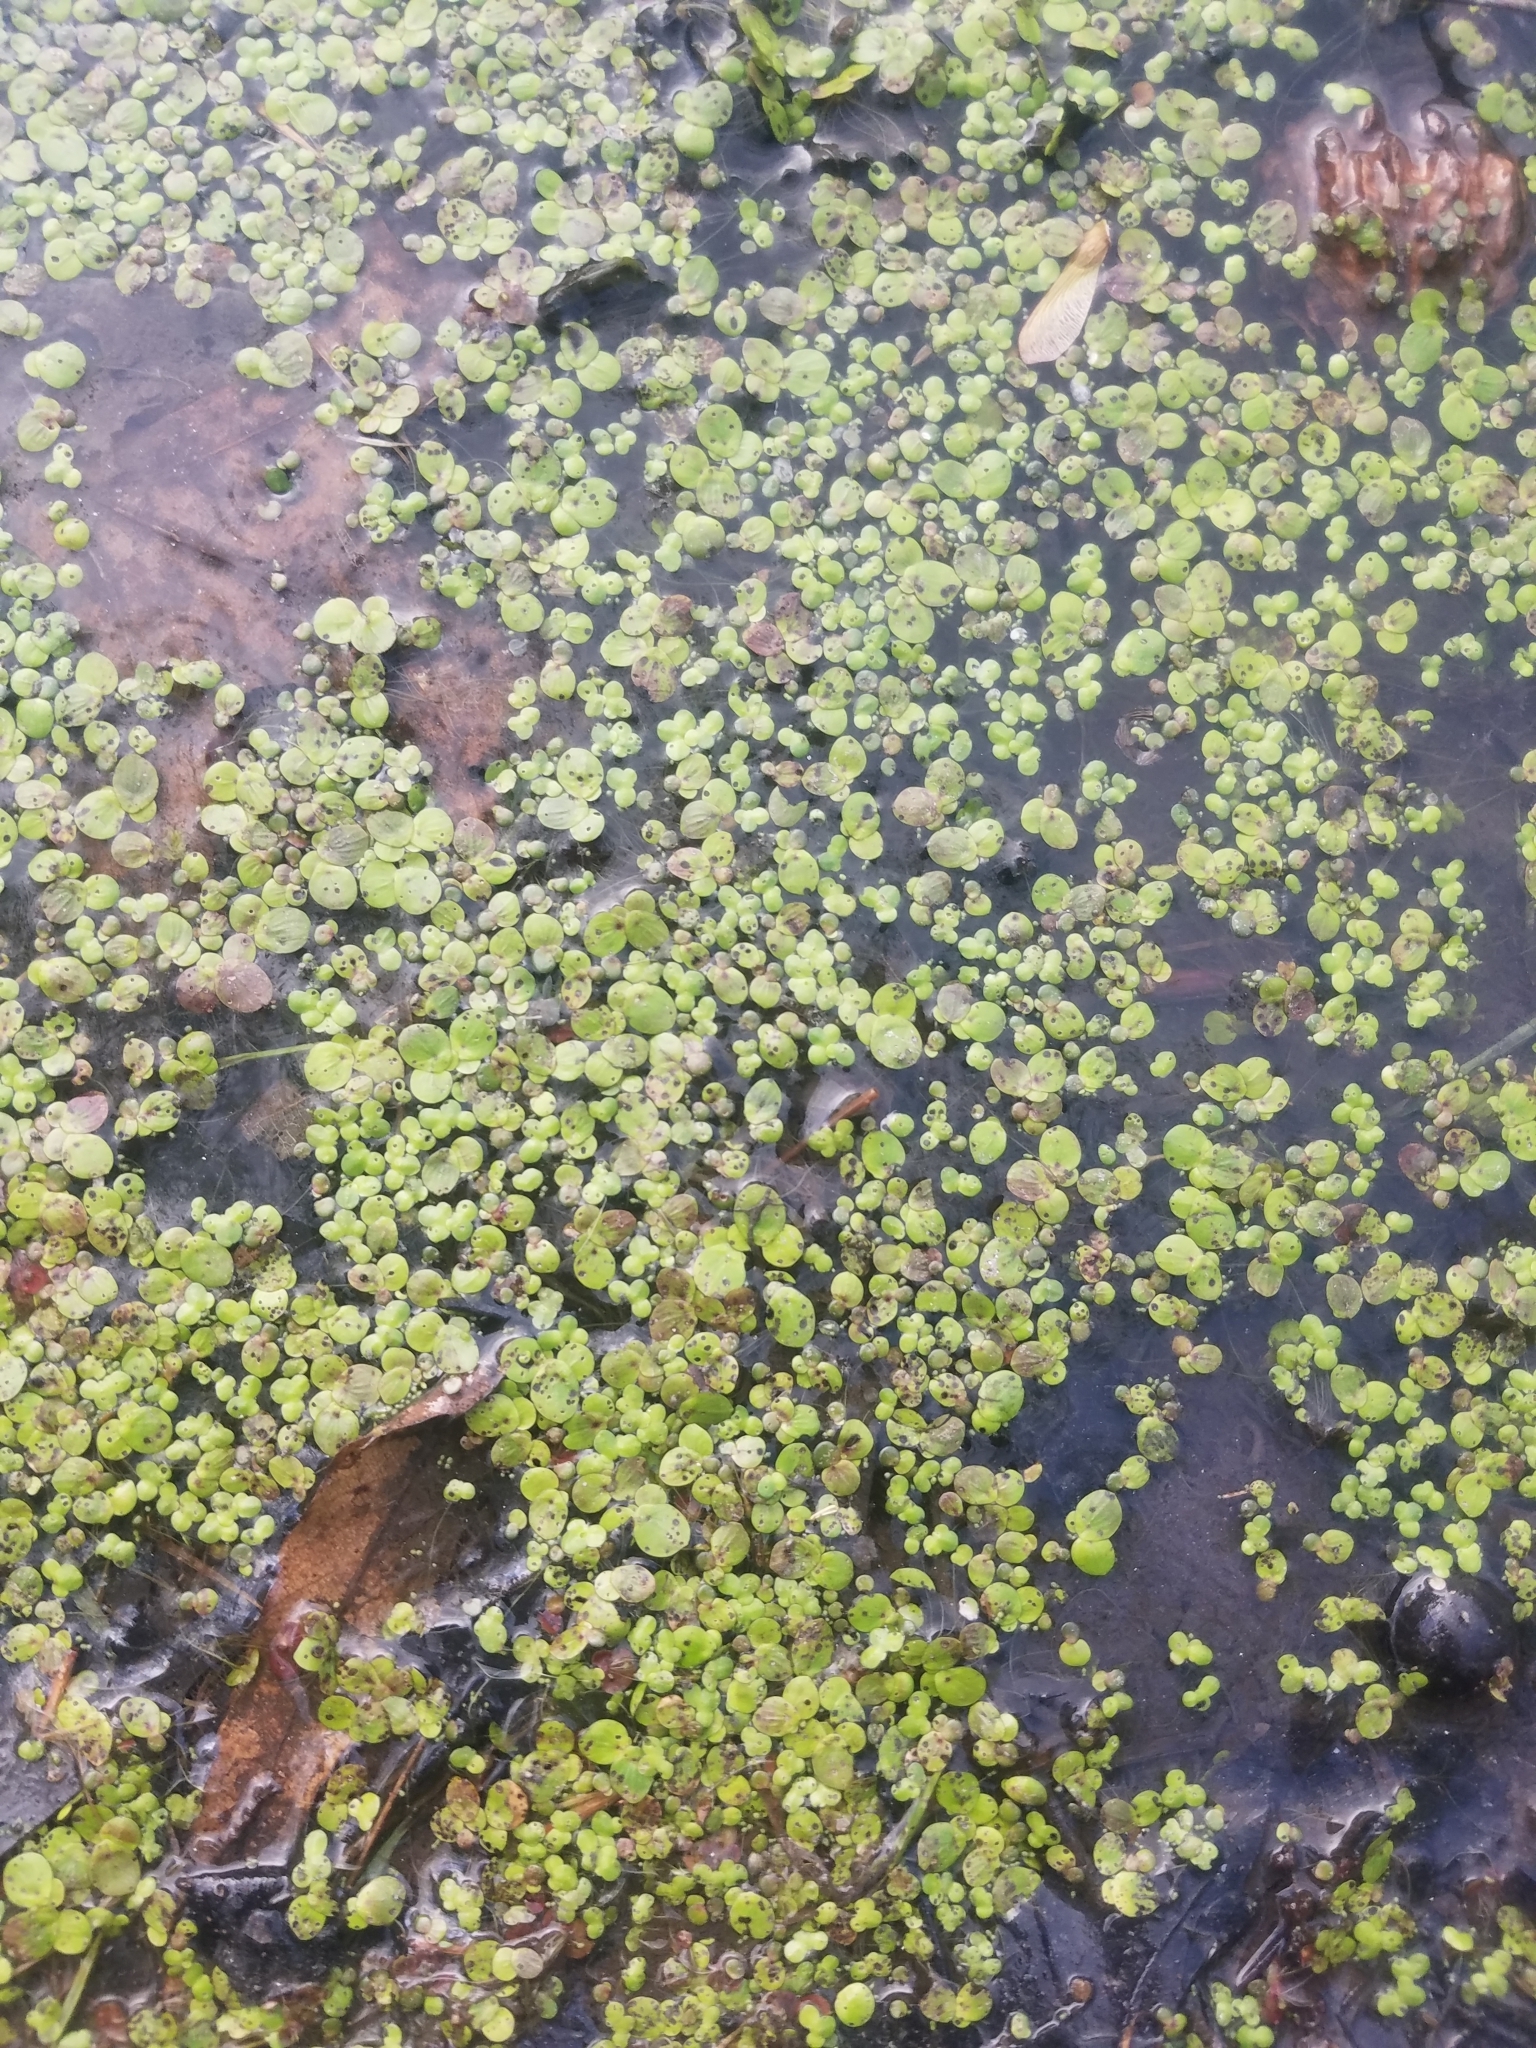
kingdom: Plantae
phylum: Tracheophyta
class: Liliopsida
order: Alismatales
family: Araceae
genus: Spirodela
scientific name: Spirodela polyrhiza
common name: Great duckweed
